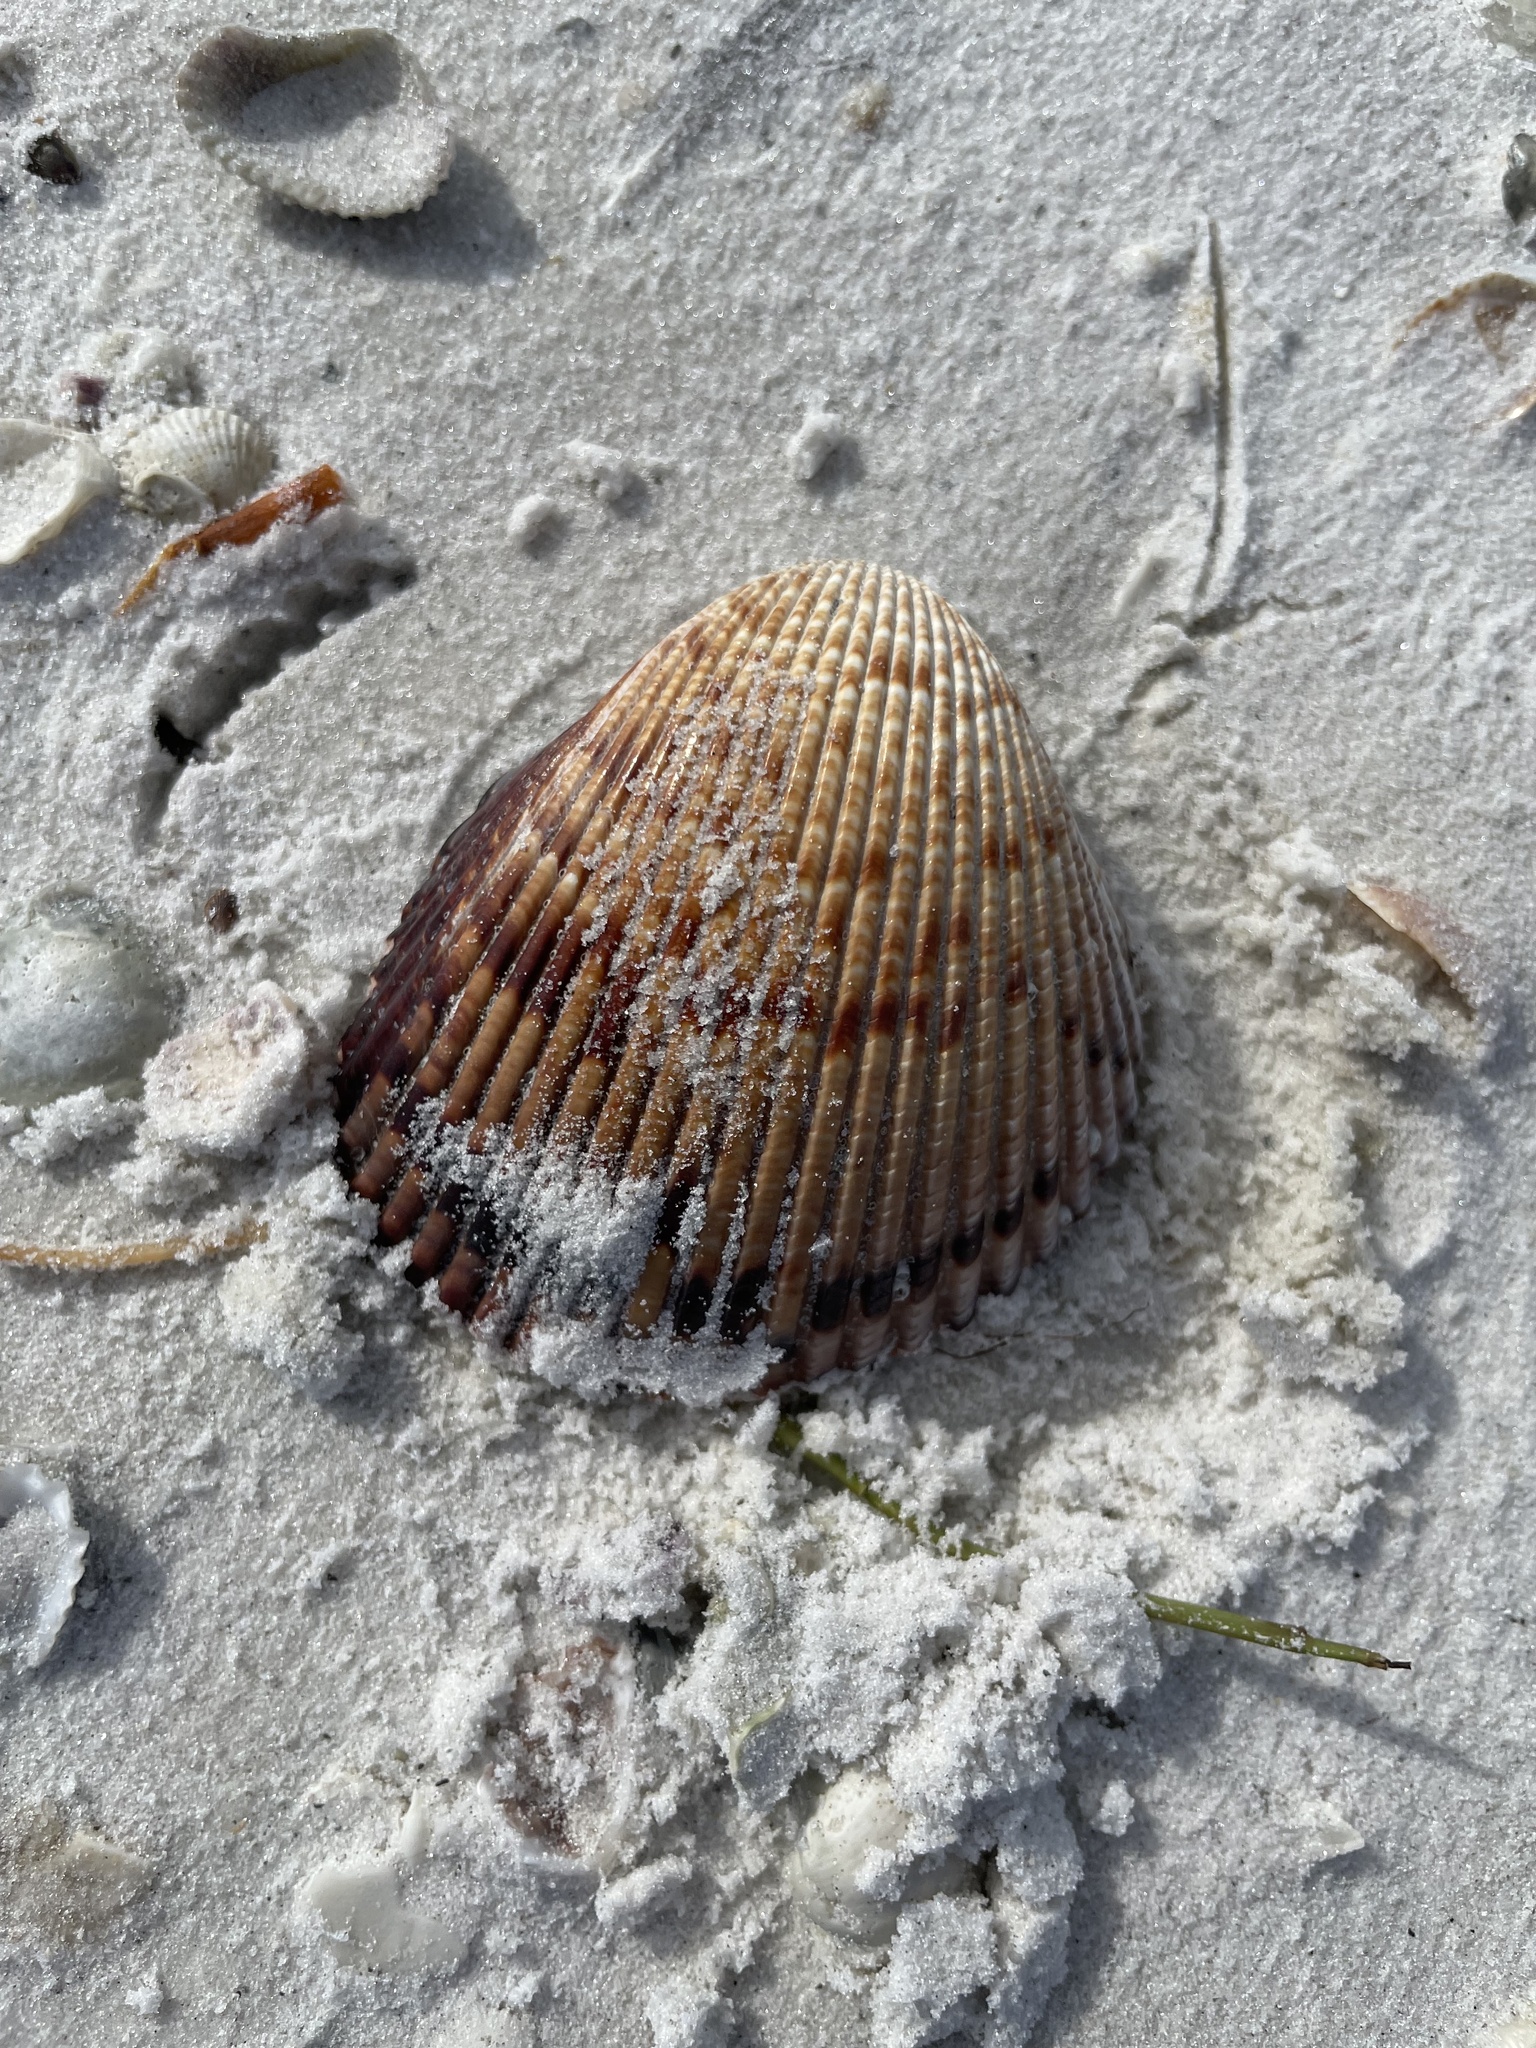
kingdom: Animalia
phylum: Mollusca
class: Bivalvia
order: Cardiida
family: Cardiidae
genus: Dinocardium
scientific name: Dinocardium robustum
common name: Atlantic giant cockle
